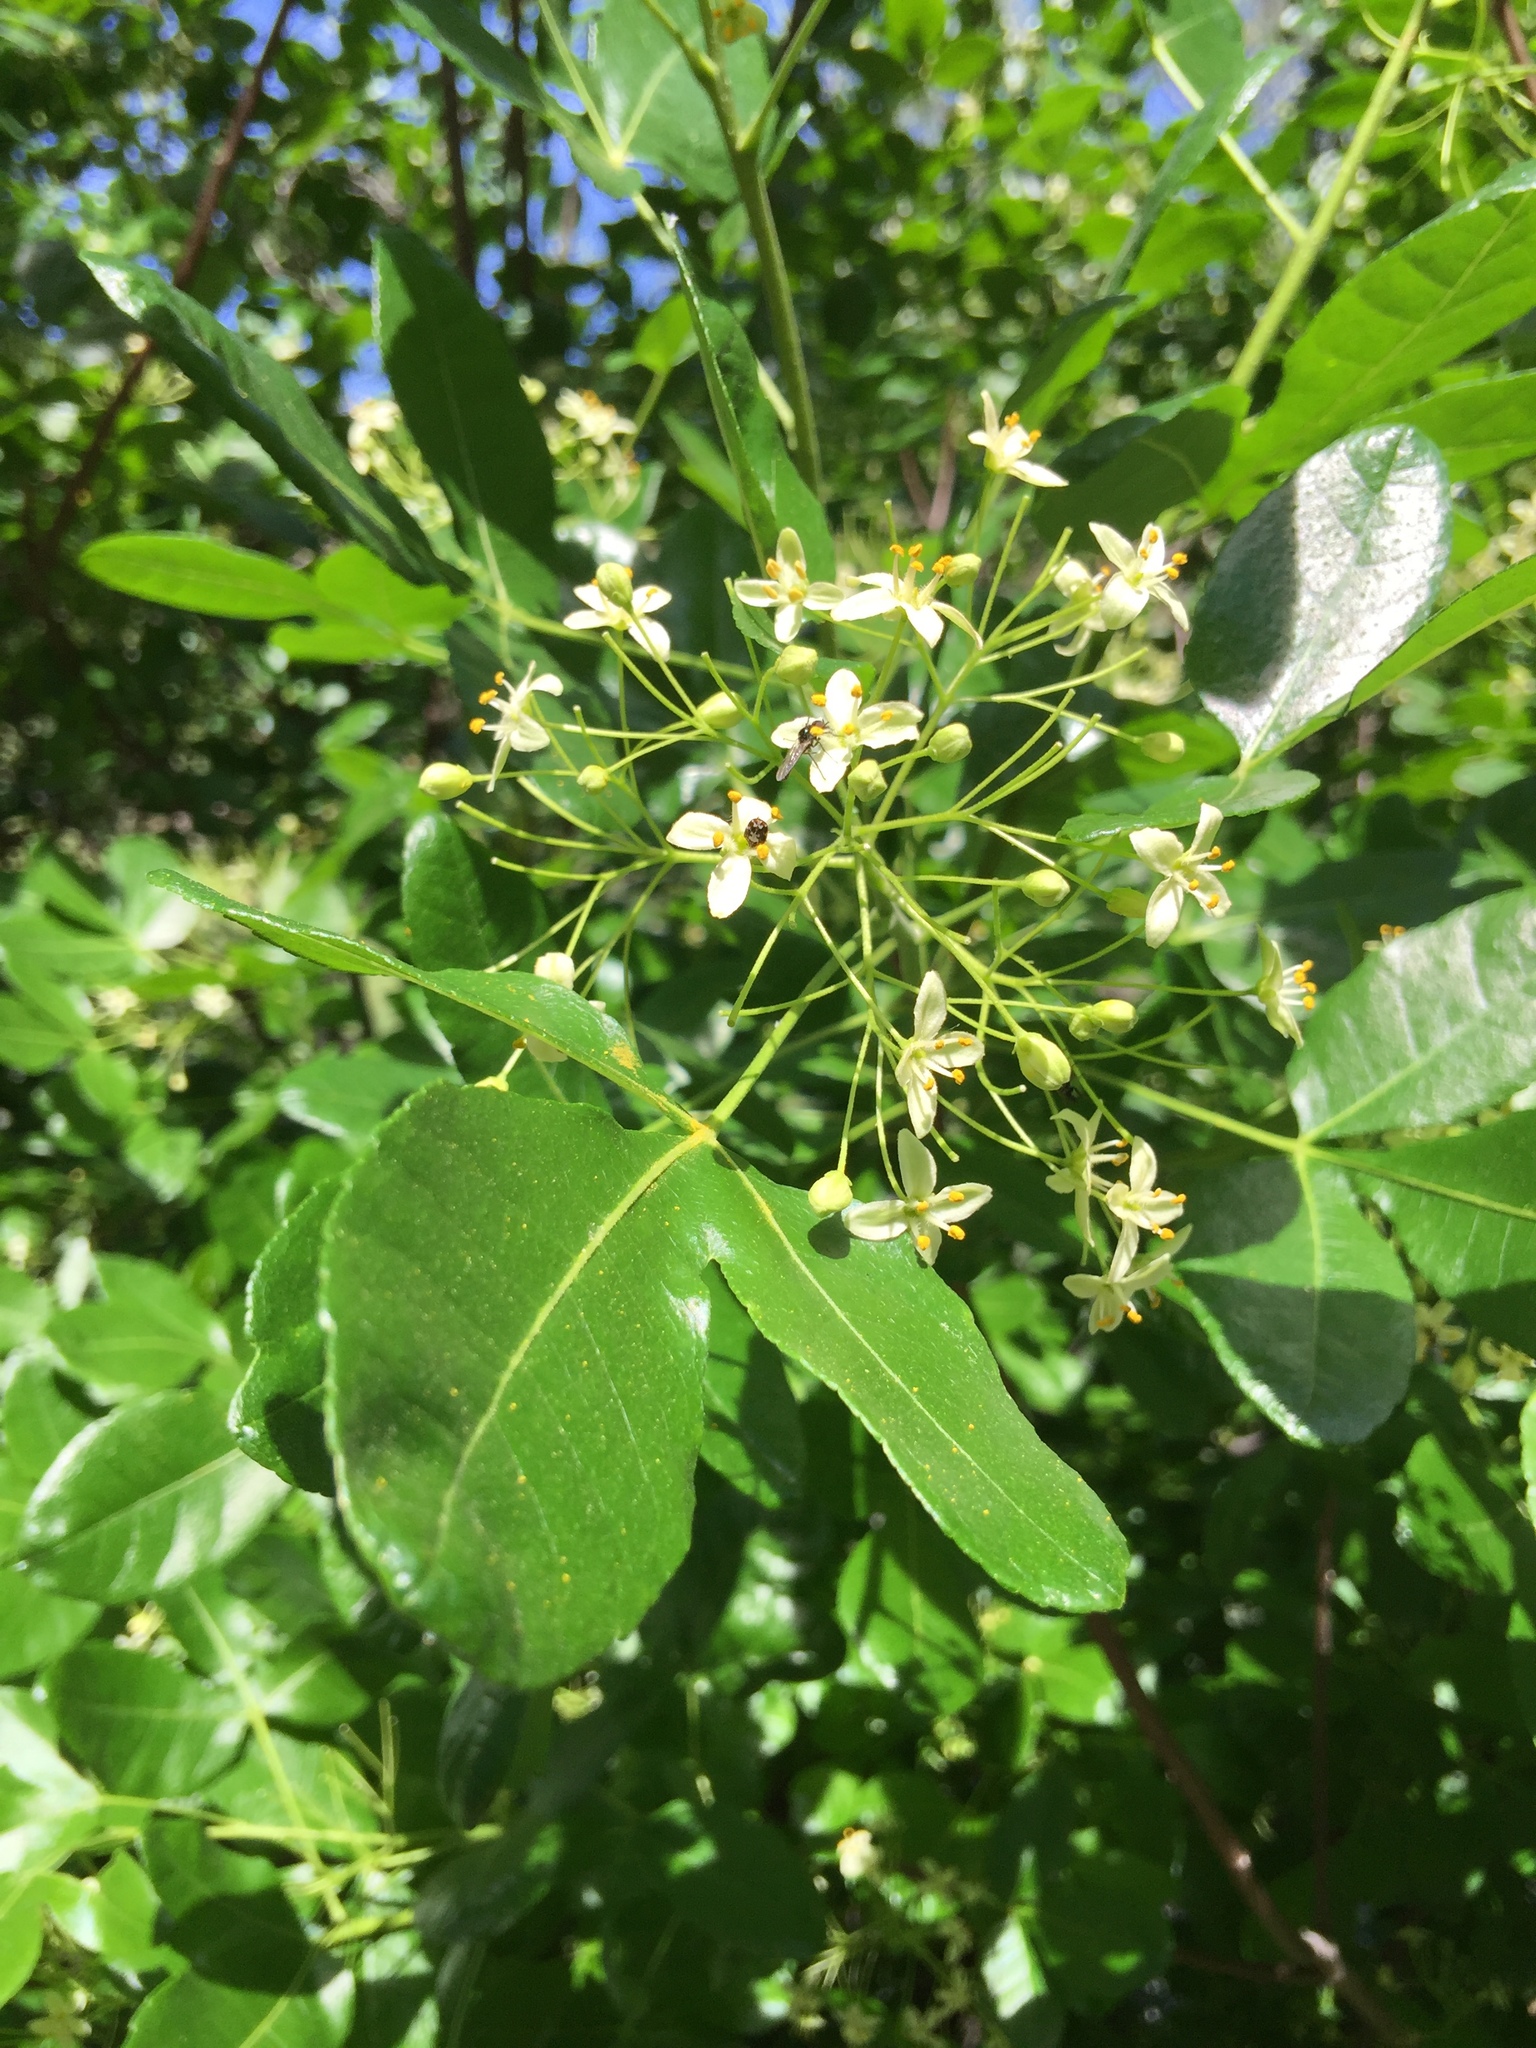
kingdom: Plantae
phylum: Tracheophyta
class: Magnoliopsida
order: Sapindales
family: Rutaceae
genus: Ptelea
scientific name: Ptelea crenulata
